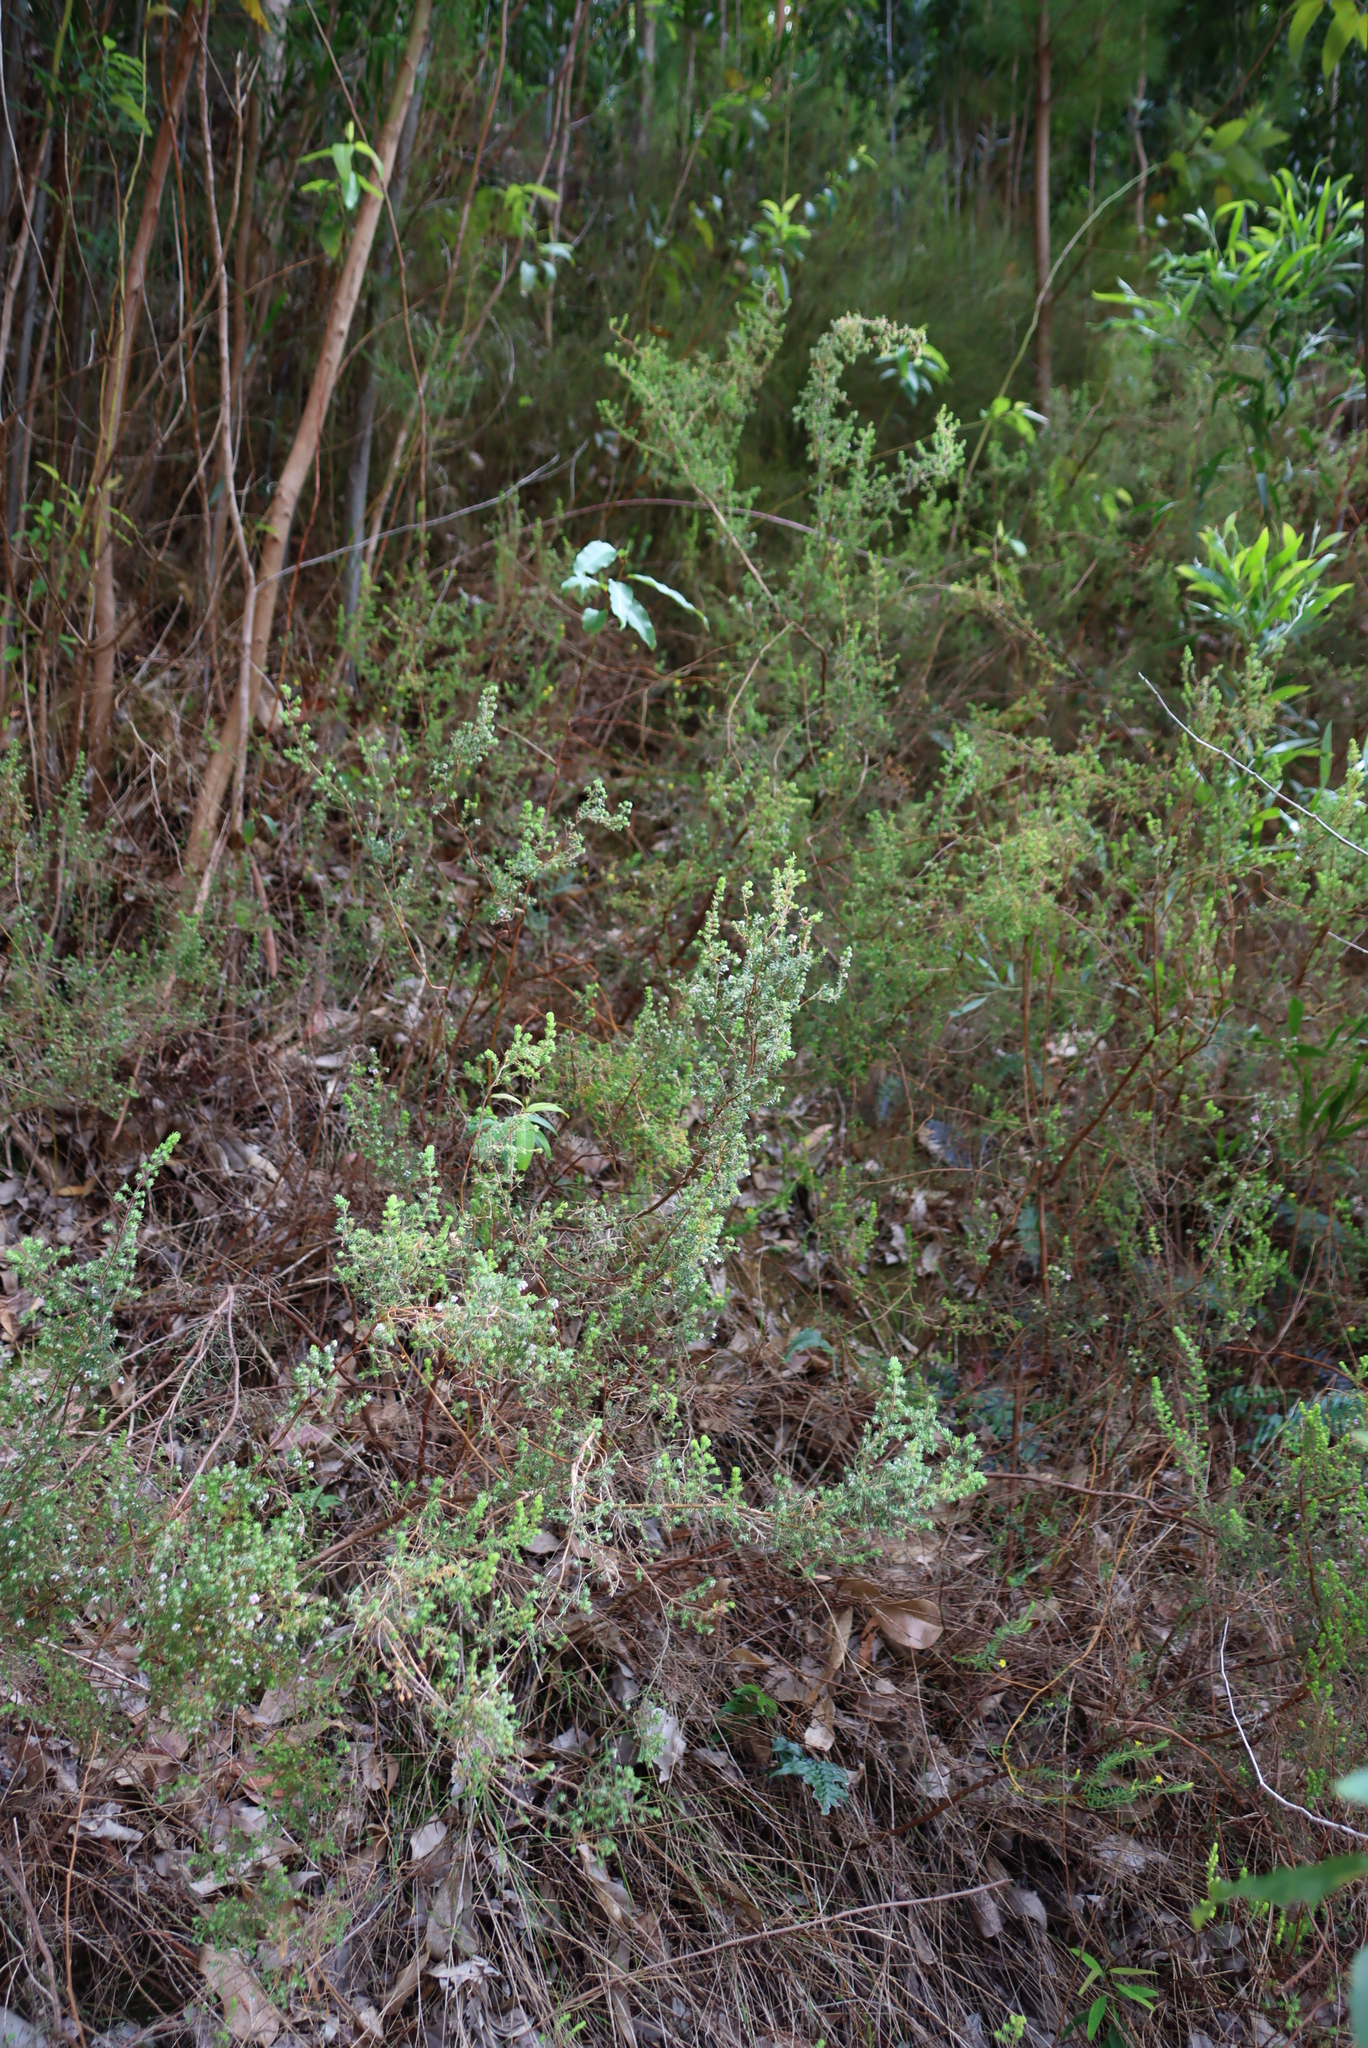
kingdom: Plantae
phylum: Tracheophyta
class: Magnoliopsida
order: Ericales
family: Ericaceae
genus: Erica
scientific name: Erica hirtiflora
